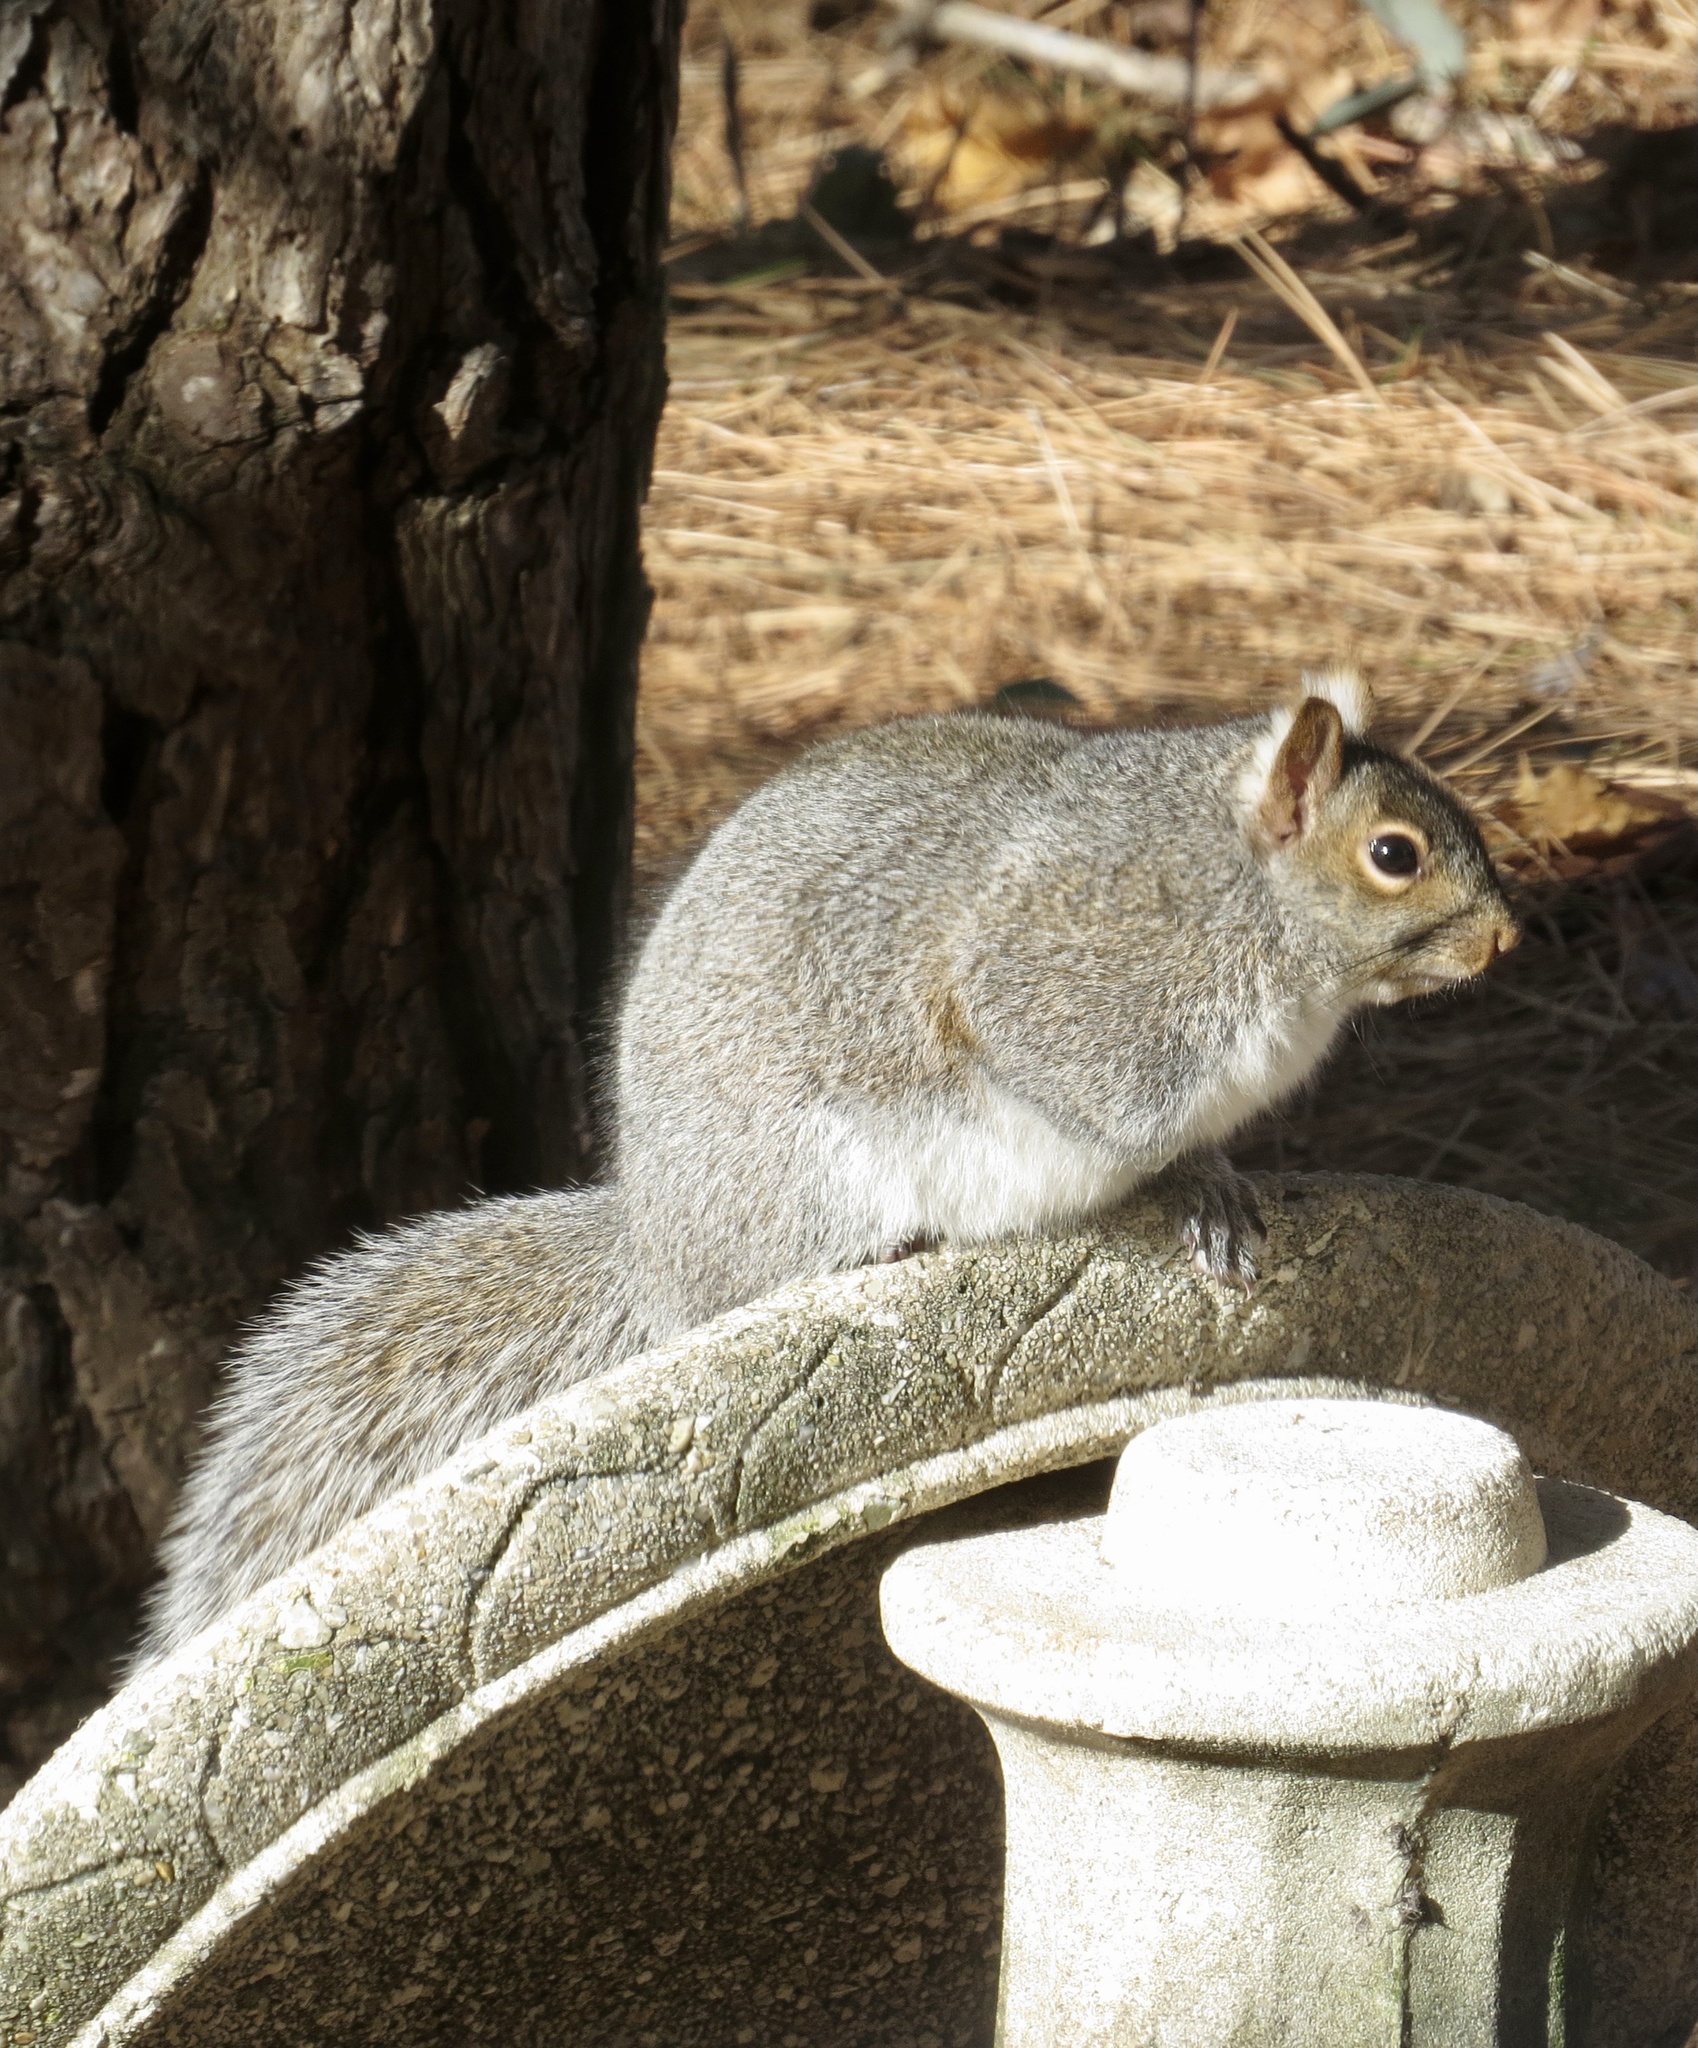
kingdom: Animalia
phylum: Chordata
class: Mammalia
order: Rodentia
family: Sciuridae
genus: Sciurus
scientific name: Sciurus carolinensis
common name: Eastern gray squirrel
